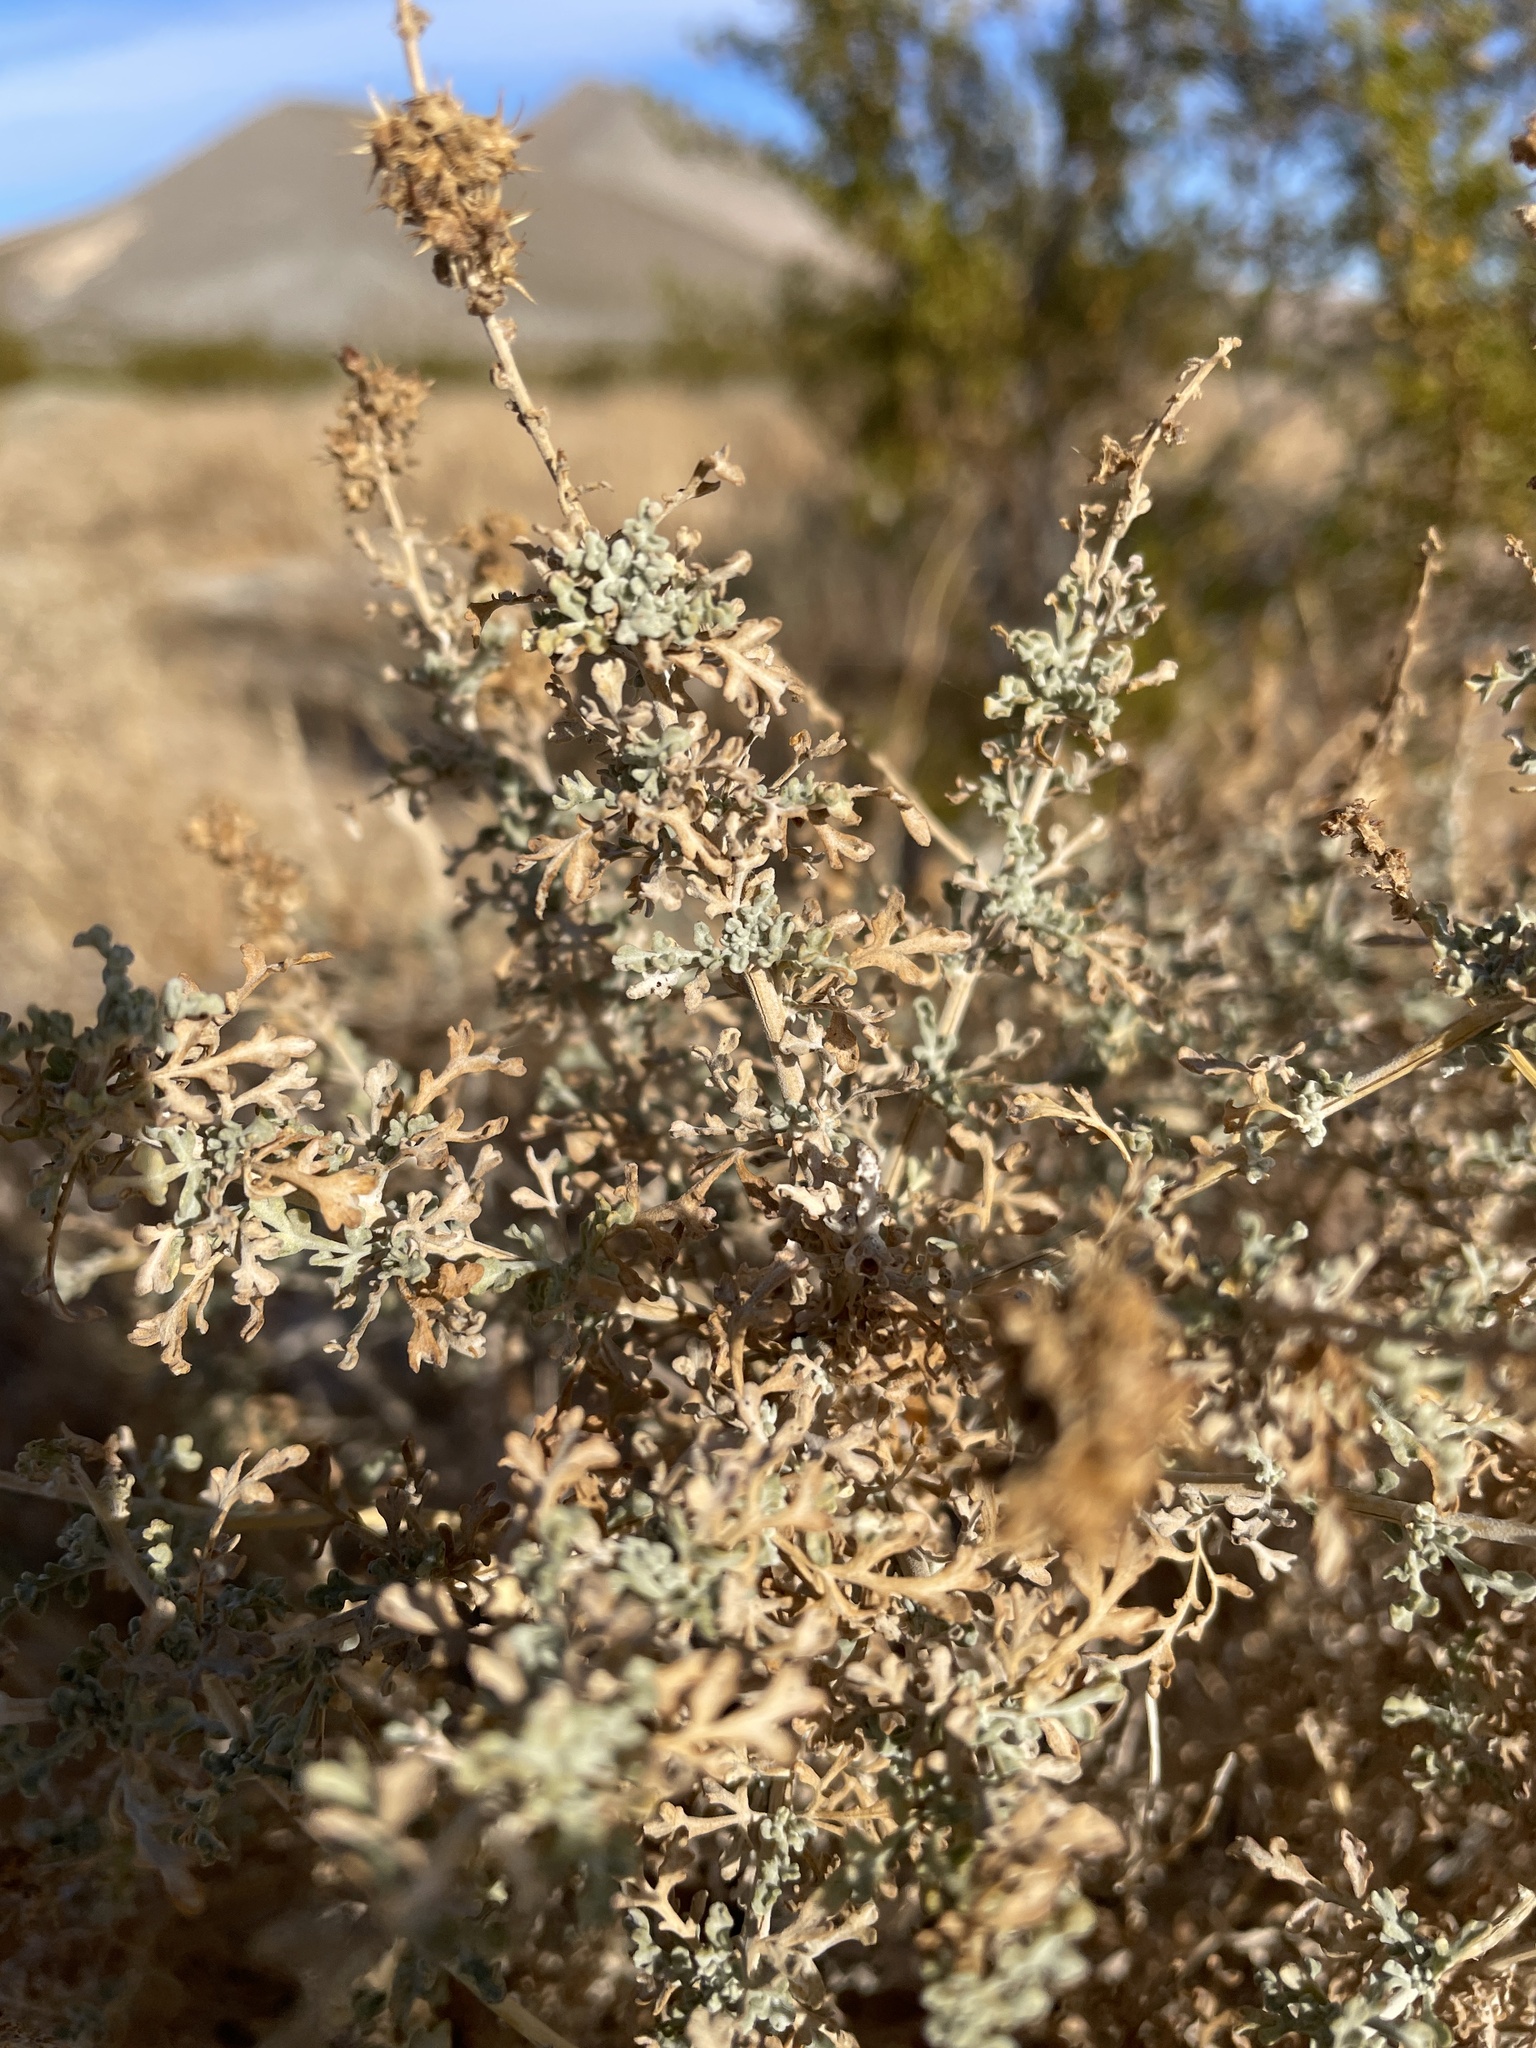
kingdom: Plantae
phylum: Tracheophyta
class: Magnoliopsida
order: Asterales
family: Asteraceae
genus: Ambrosia
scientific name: Ambrosia dumosa
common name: Bur-sage
